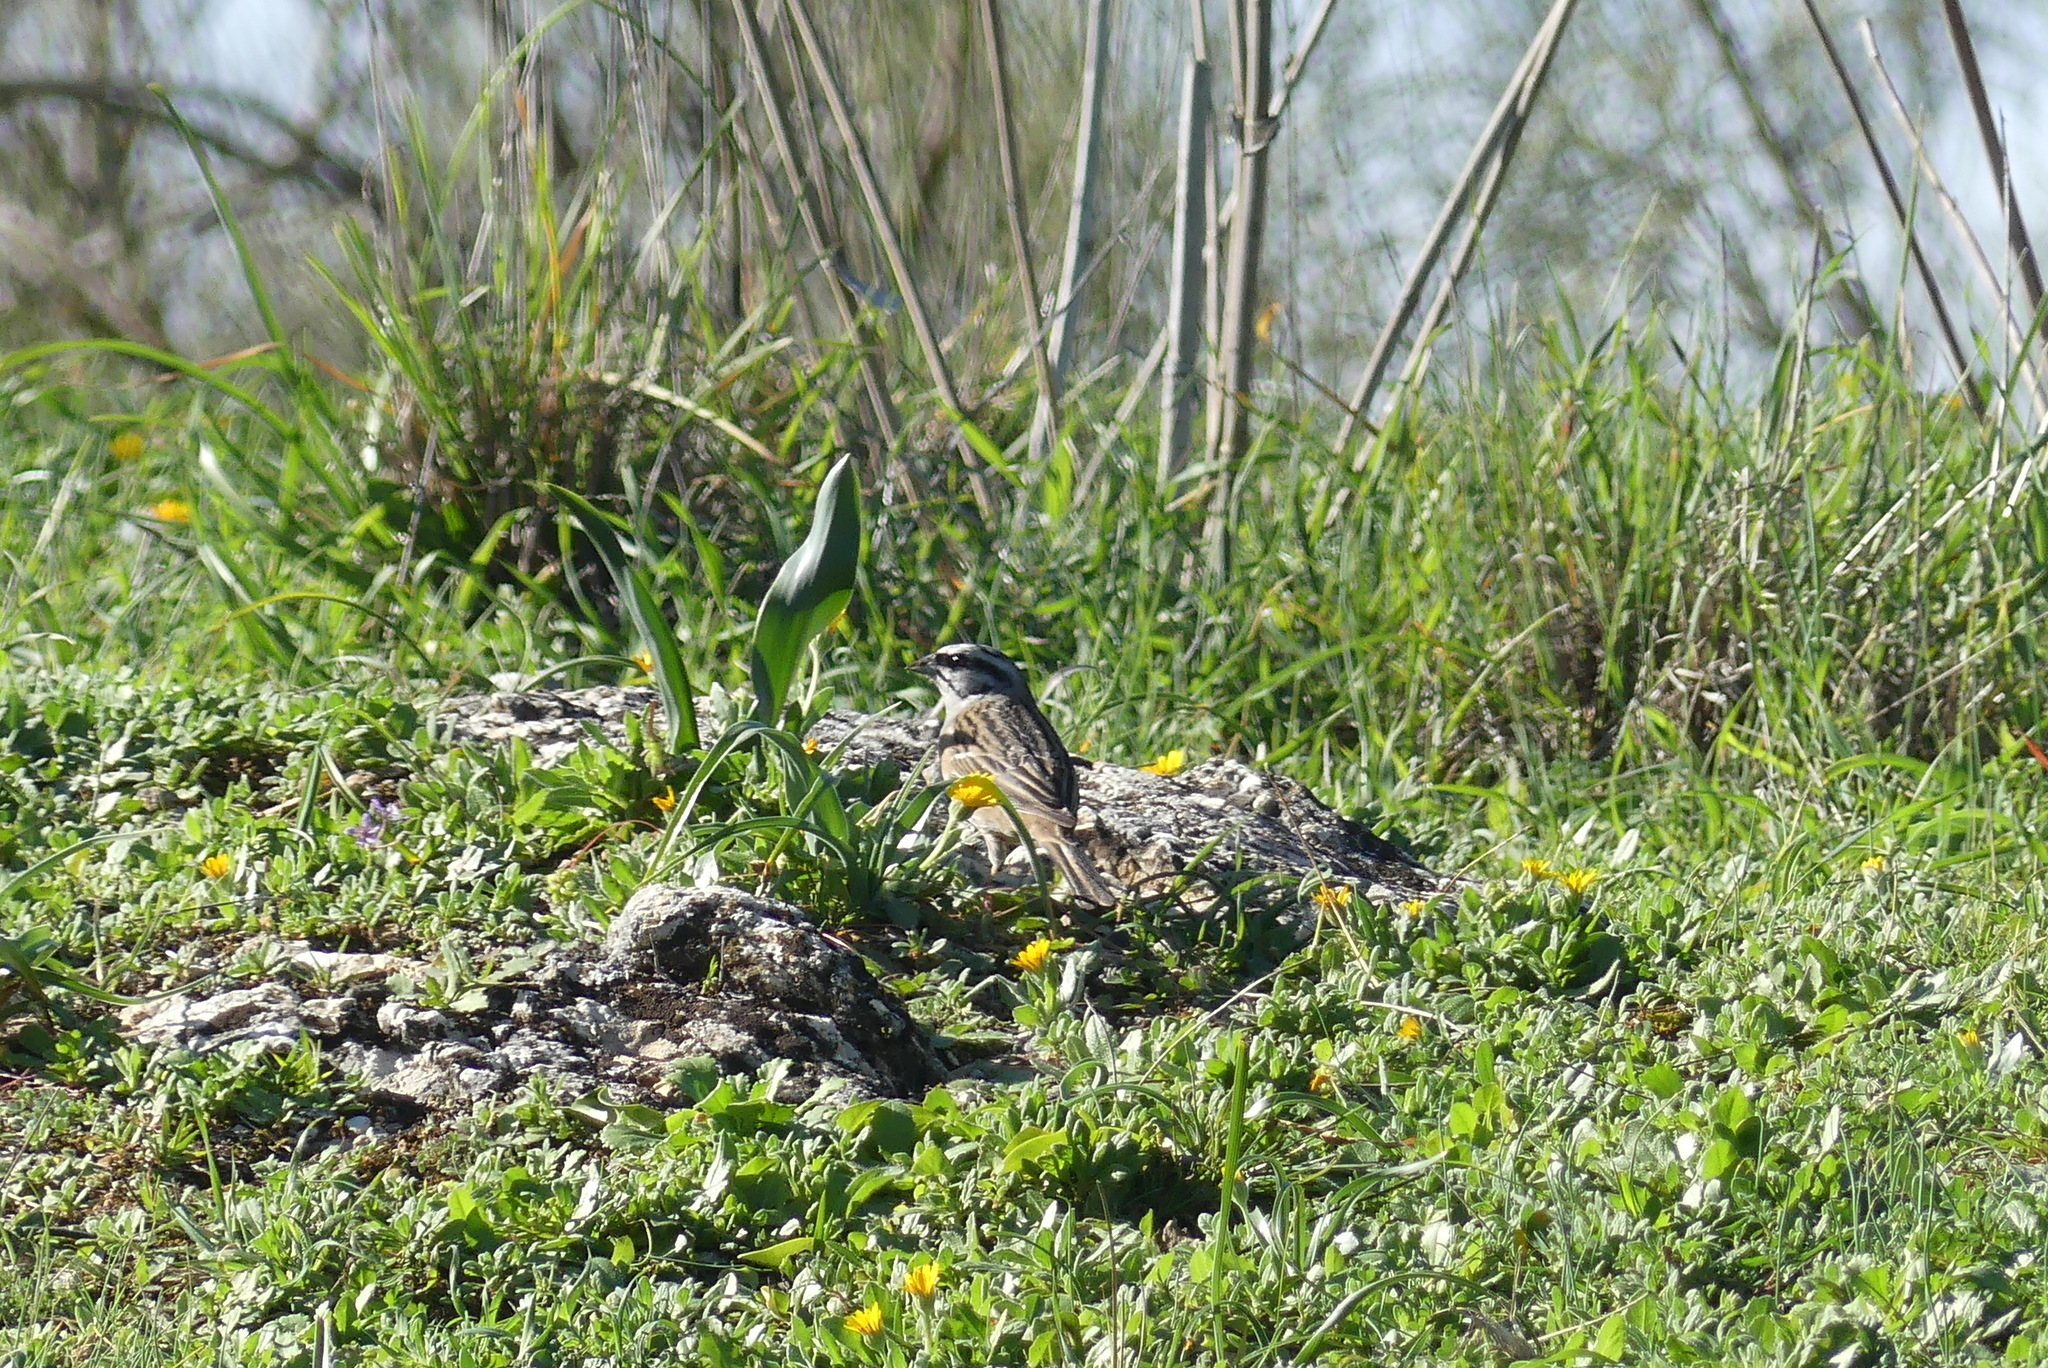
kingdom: Animalia
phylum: Chordata
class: Aves
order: Passeriformes
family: Emberizidae
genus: Emberiza
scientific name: Emberiza cia
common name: Rock bunting
